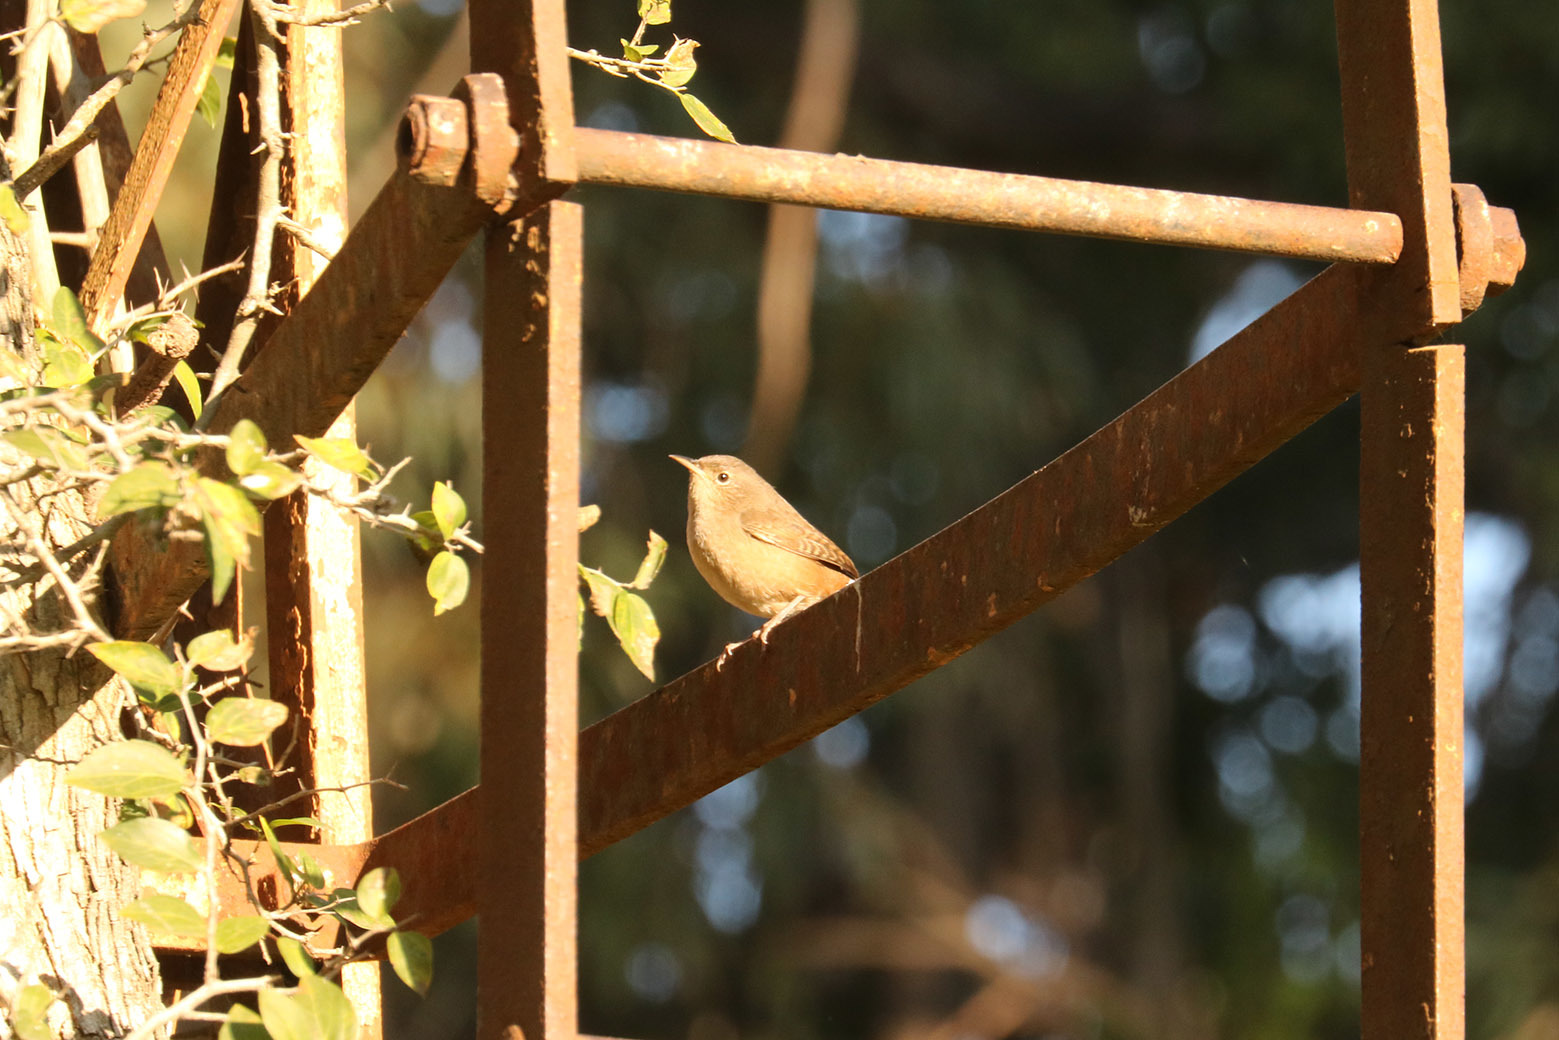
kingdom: Animalia
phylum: Chordata
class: Aves
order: Passeriformes
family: Troglodytidae
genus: Troglodytes
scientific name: Troglodytes aedon
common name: House wren
